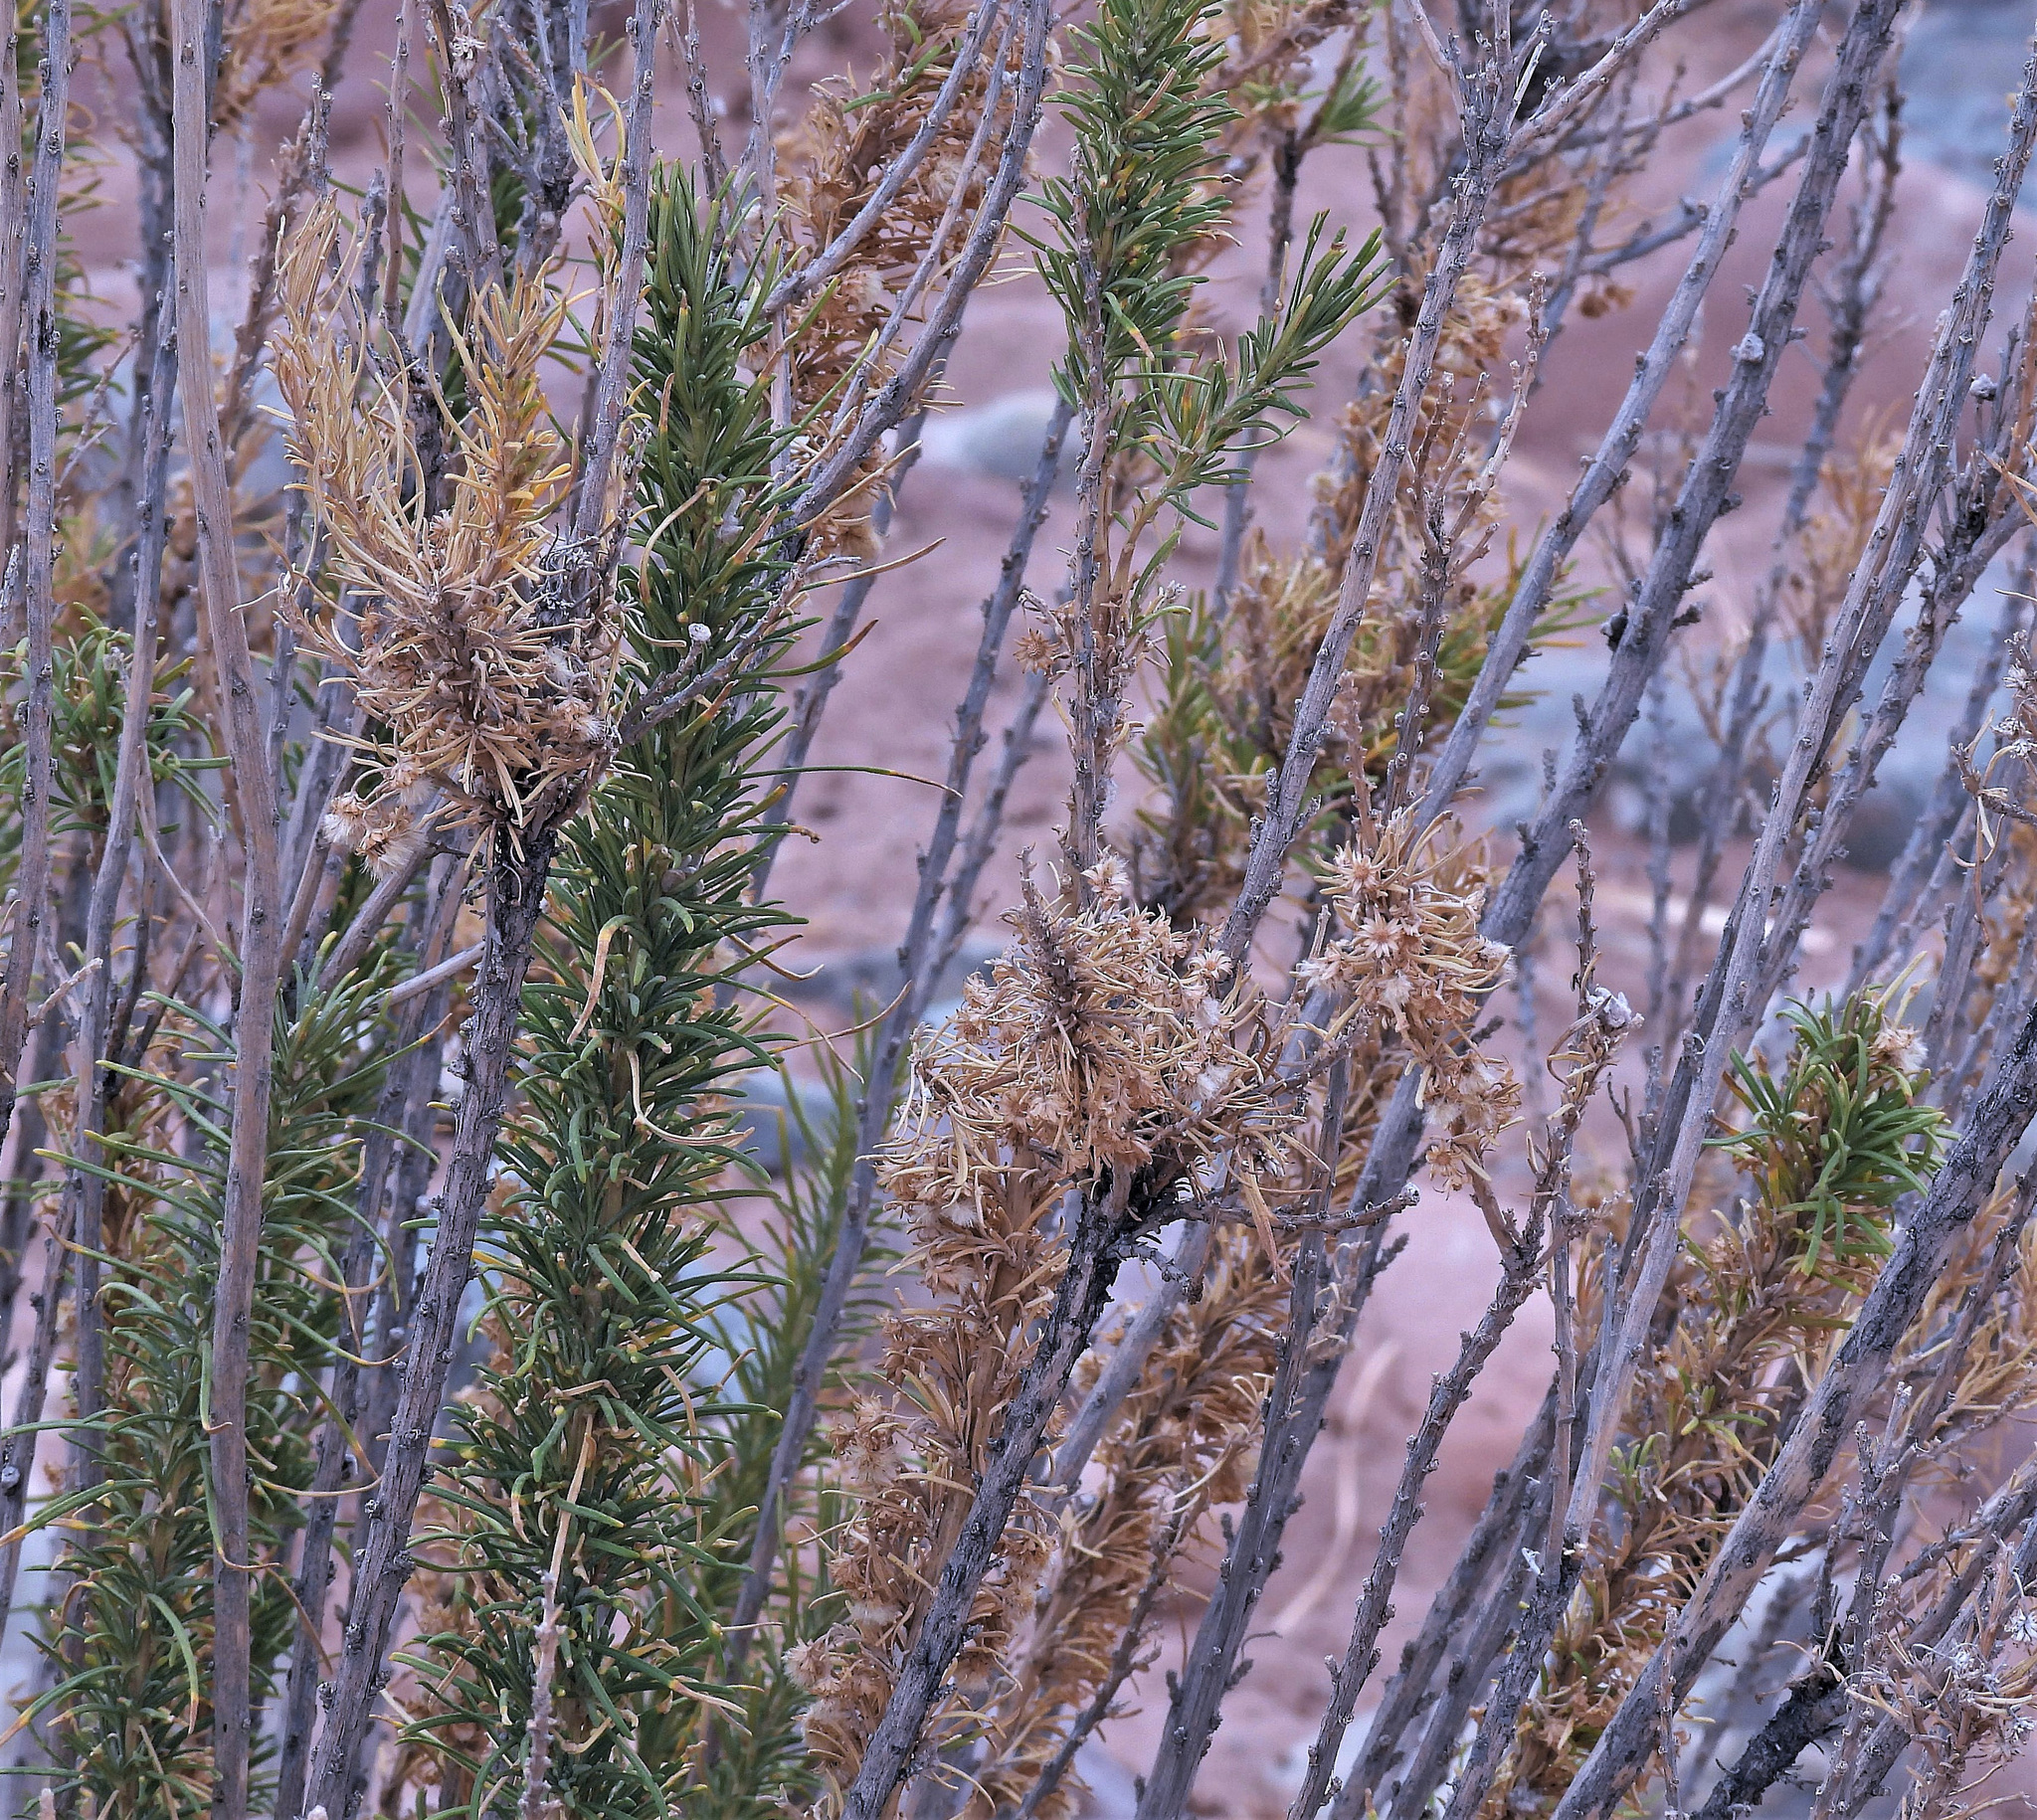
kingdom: Plantae
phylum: Tracheophyta
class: Magnoliopsida
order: Asterales
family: Asteraceae
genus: Baccharis
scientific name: Baccharis grisebachii
